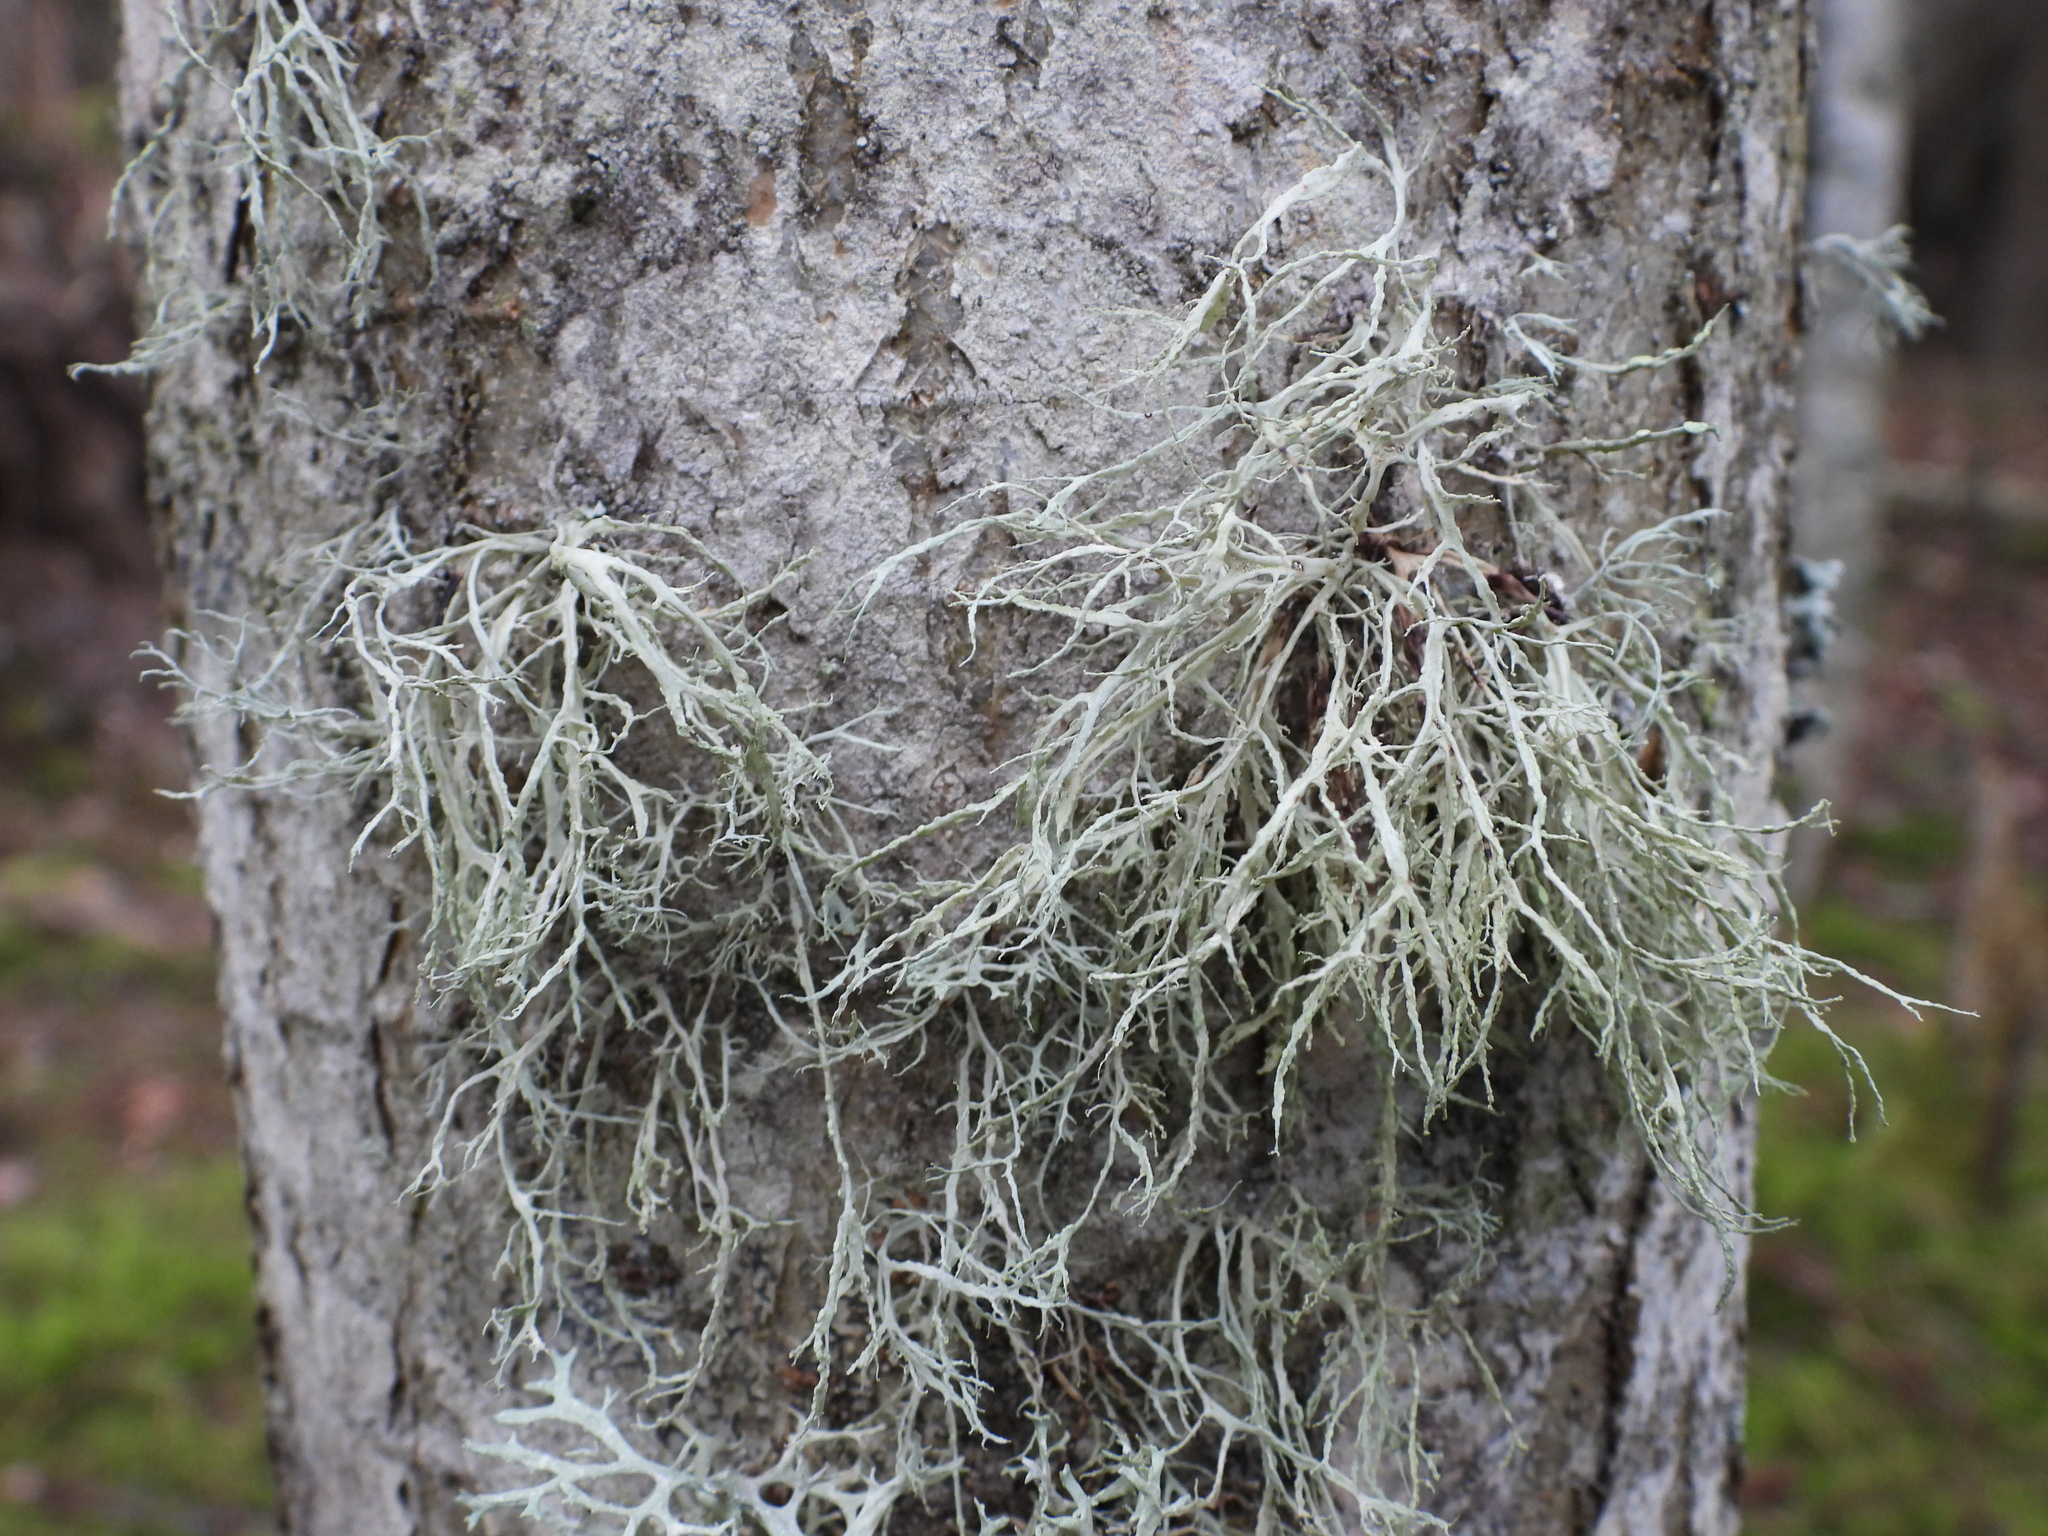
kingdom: Fungi
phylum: Ascomycota
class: Lecanoromycetes
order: Lecanorales
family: Ramalinaceae
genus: Ramalina
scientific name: Ramalina farinacea
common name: Farinose cartilage lichen
